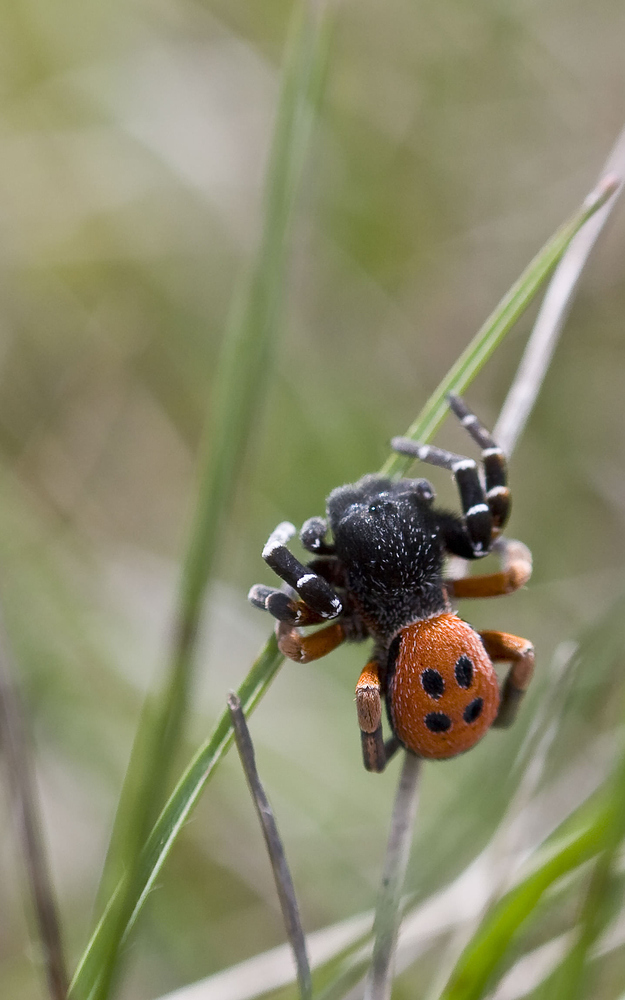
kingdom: Animalia
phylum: Arthropoda
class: Arachnida
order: Araneae
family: Eresidae
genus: Eresus
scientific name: Eresus kollari
